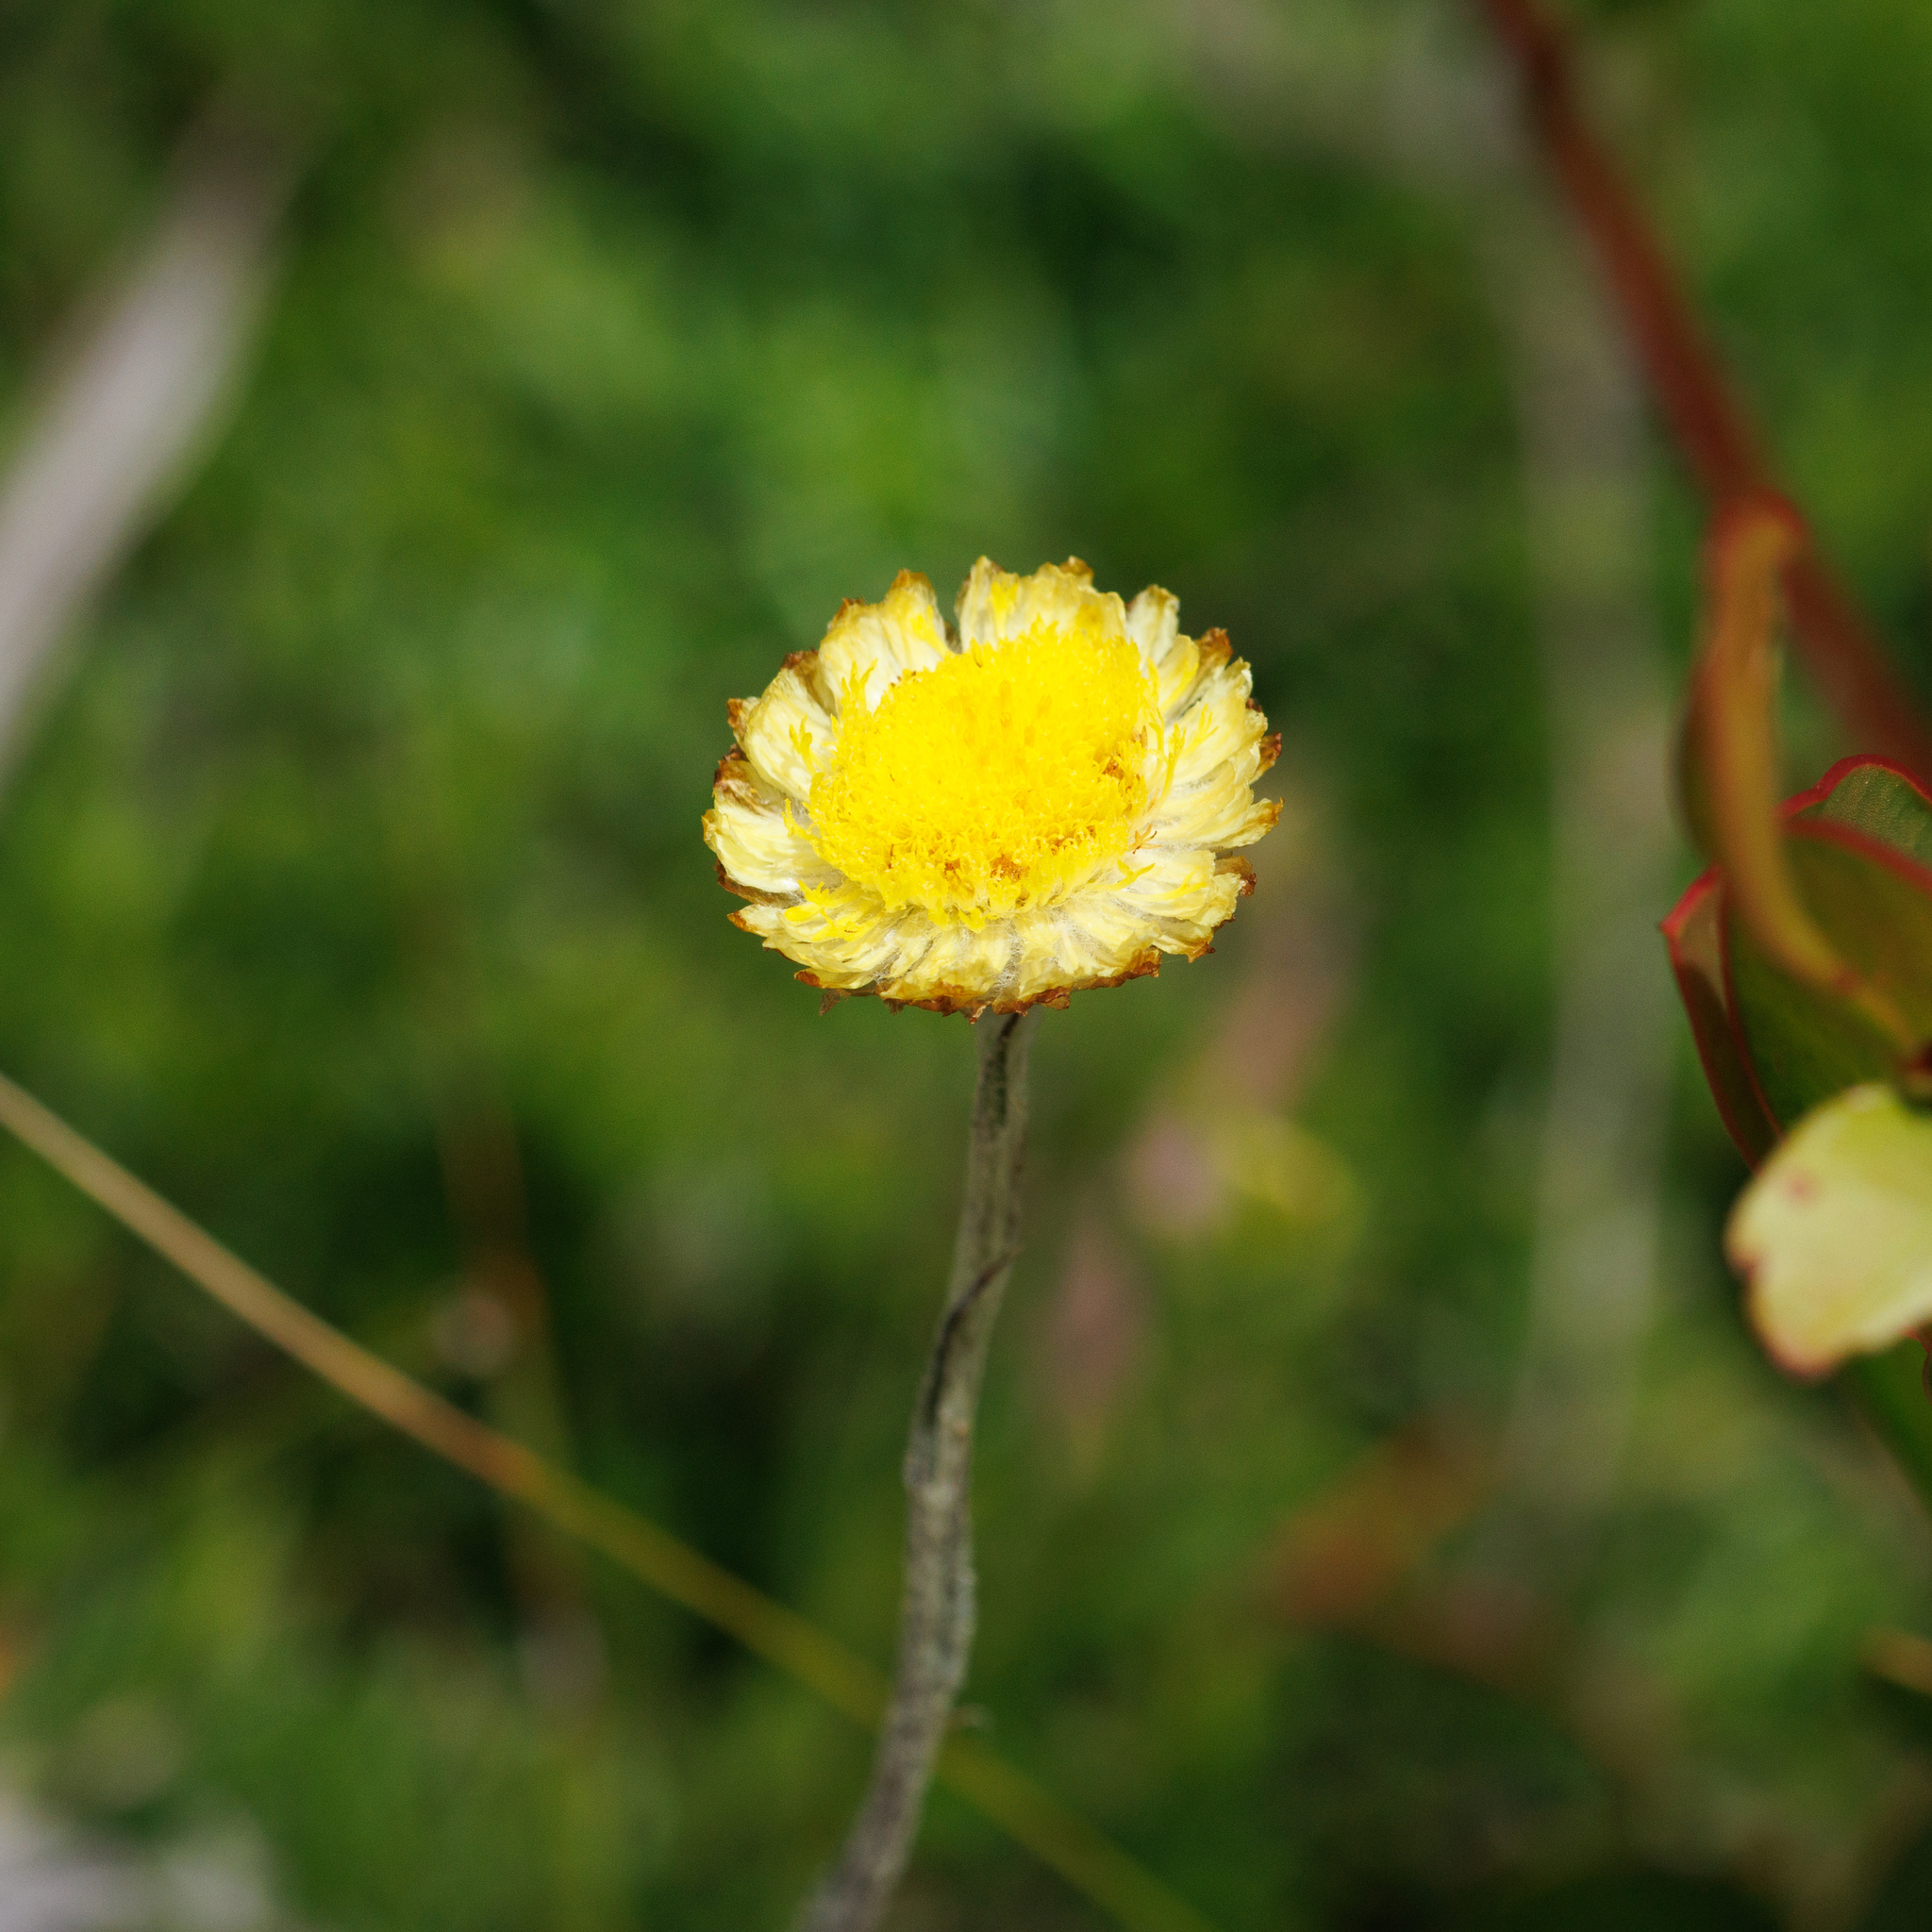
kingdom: Plantae
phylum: Tracheophyta
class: Magnoliopsida
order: Asterales
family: Asteraceae
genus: Coronidium
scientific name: Coronidium scorpioides
